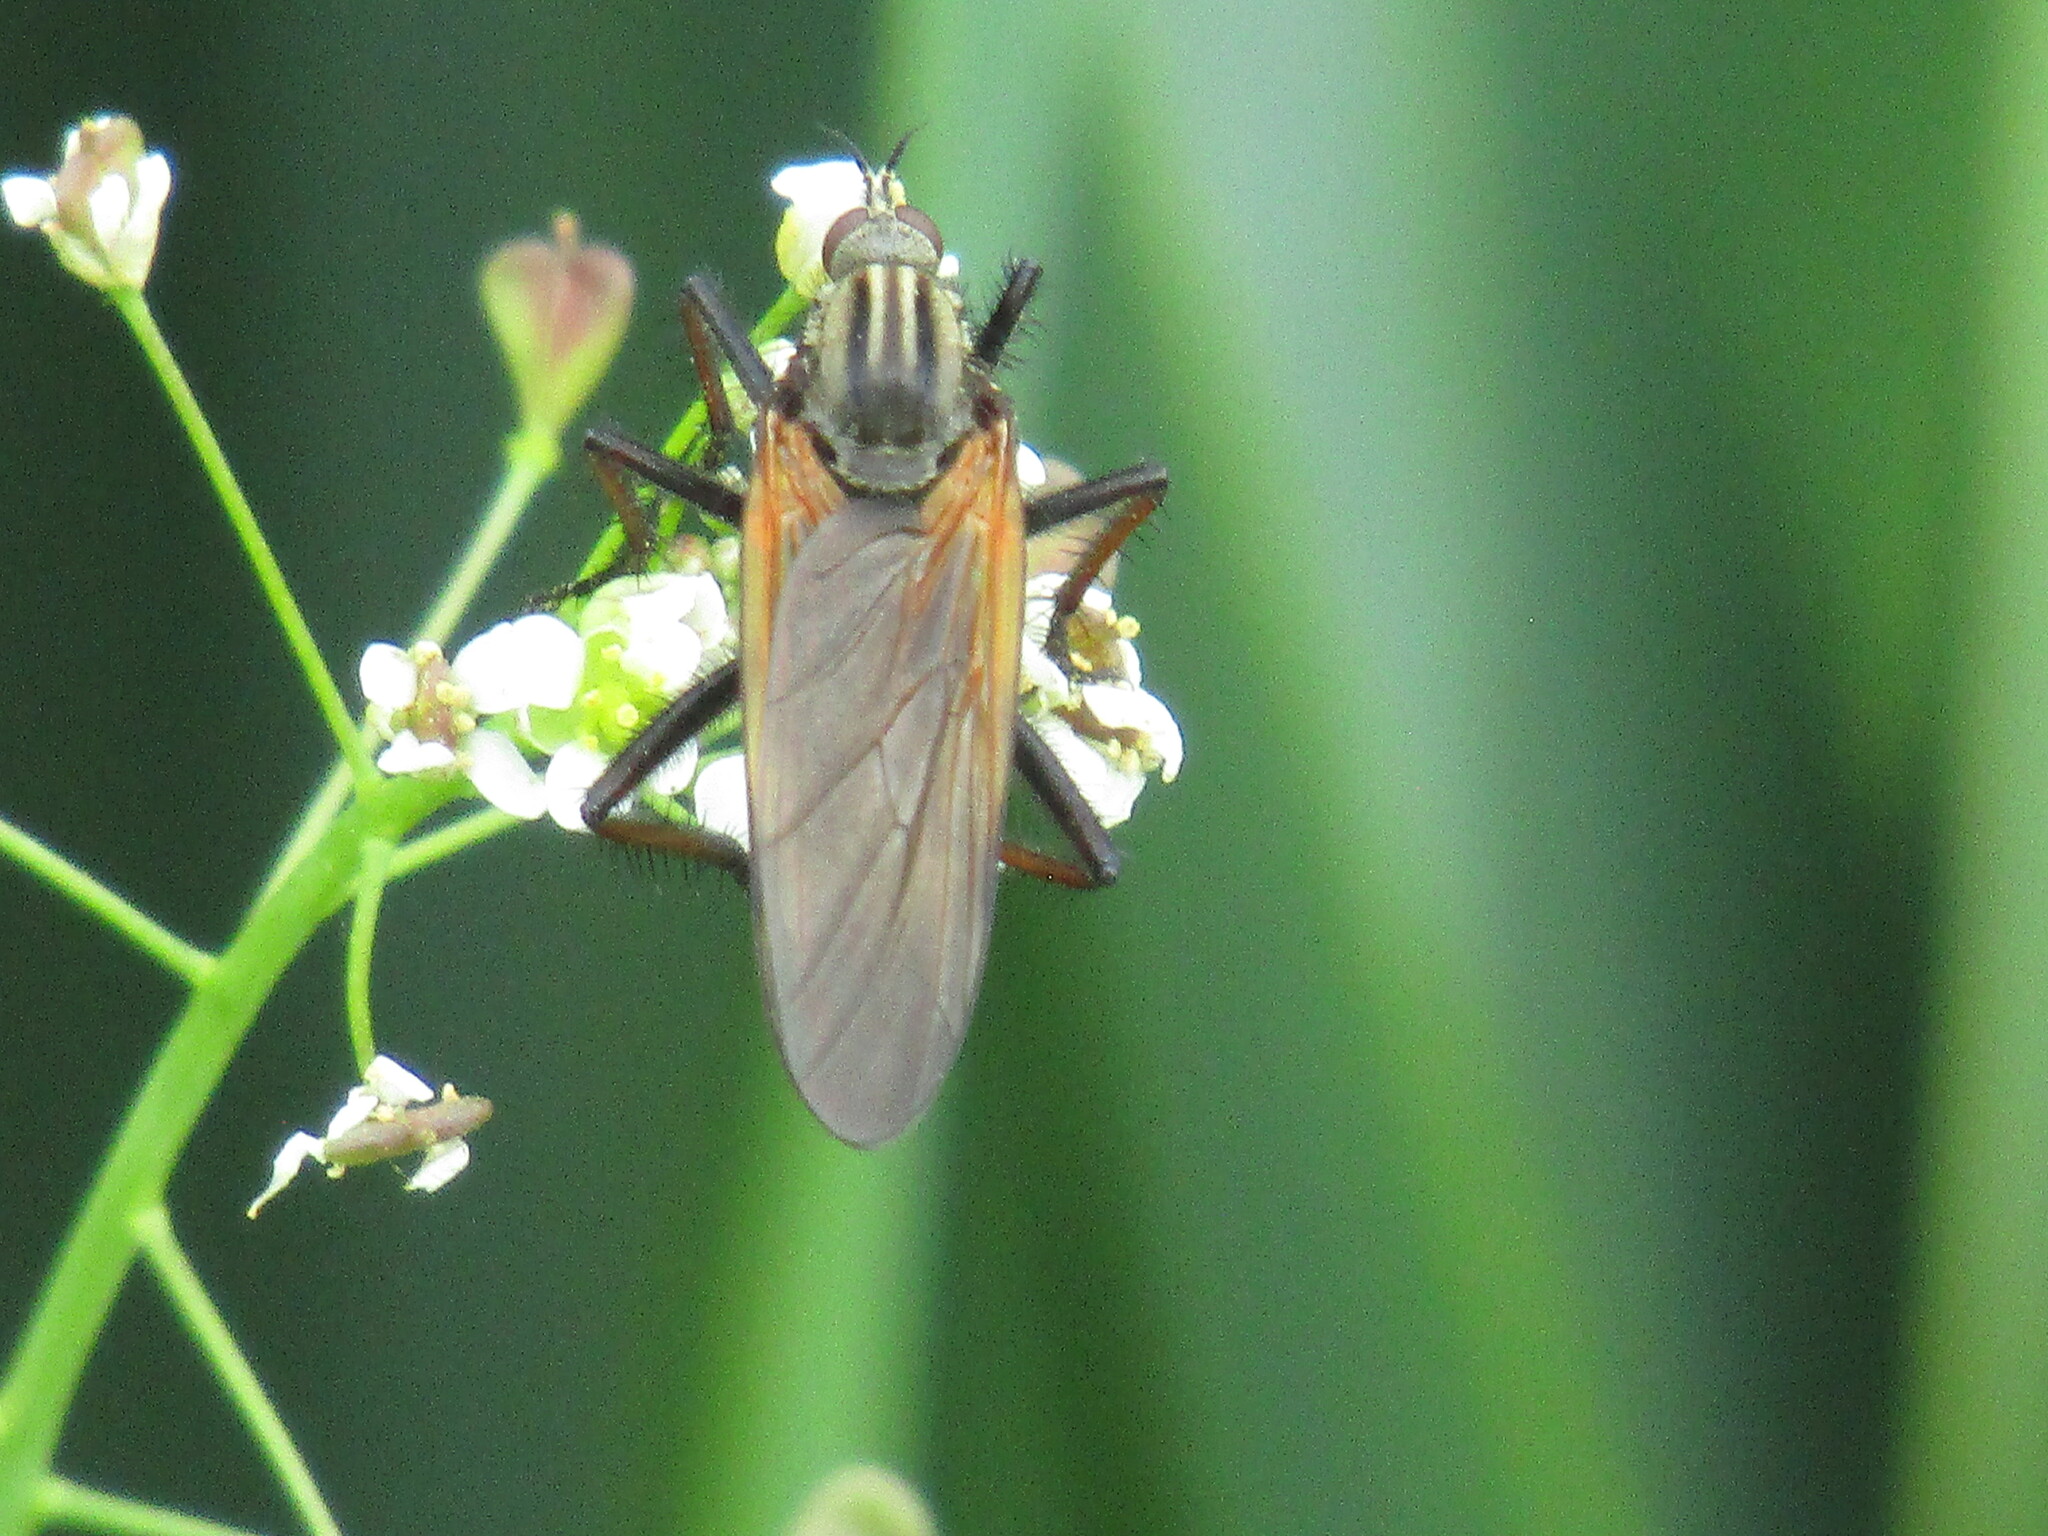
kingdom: Animalia
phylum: Arthropoda
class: Insecta
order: Diptera
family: Empididae
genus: Empis
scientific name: Empis tessellata
